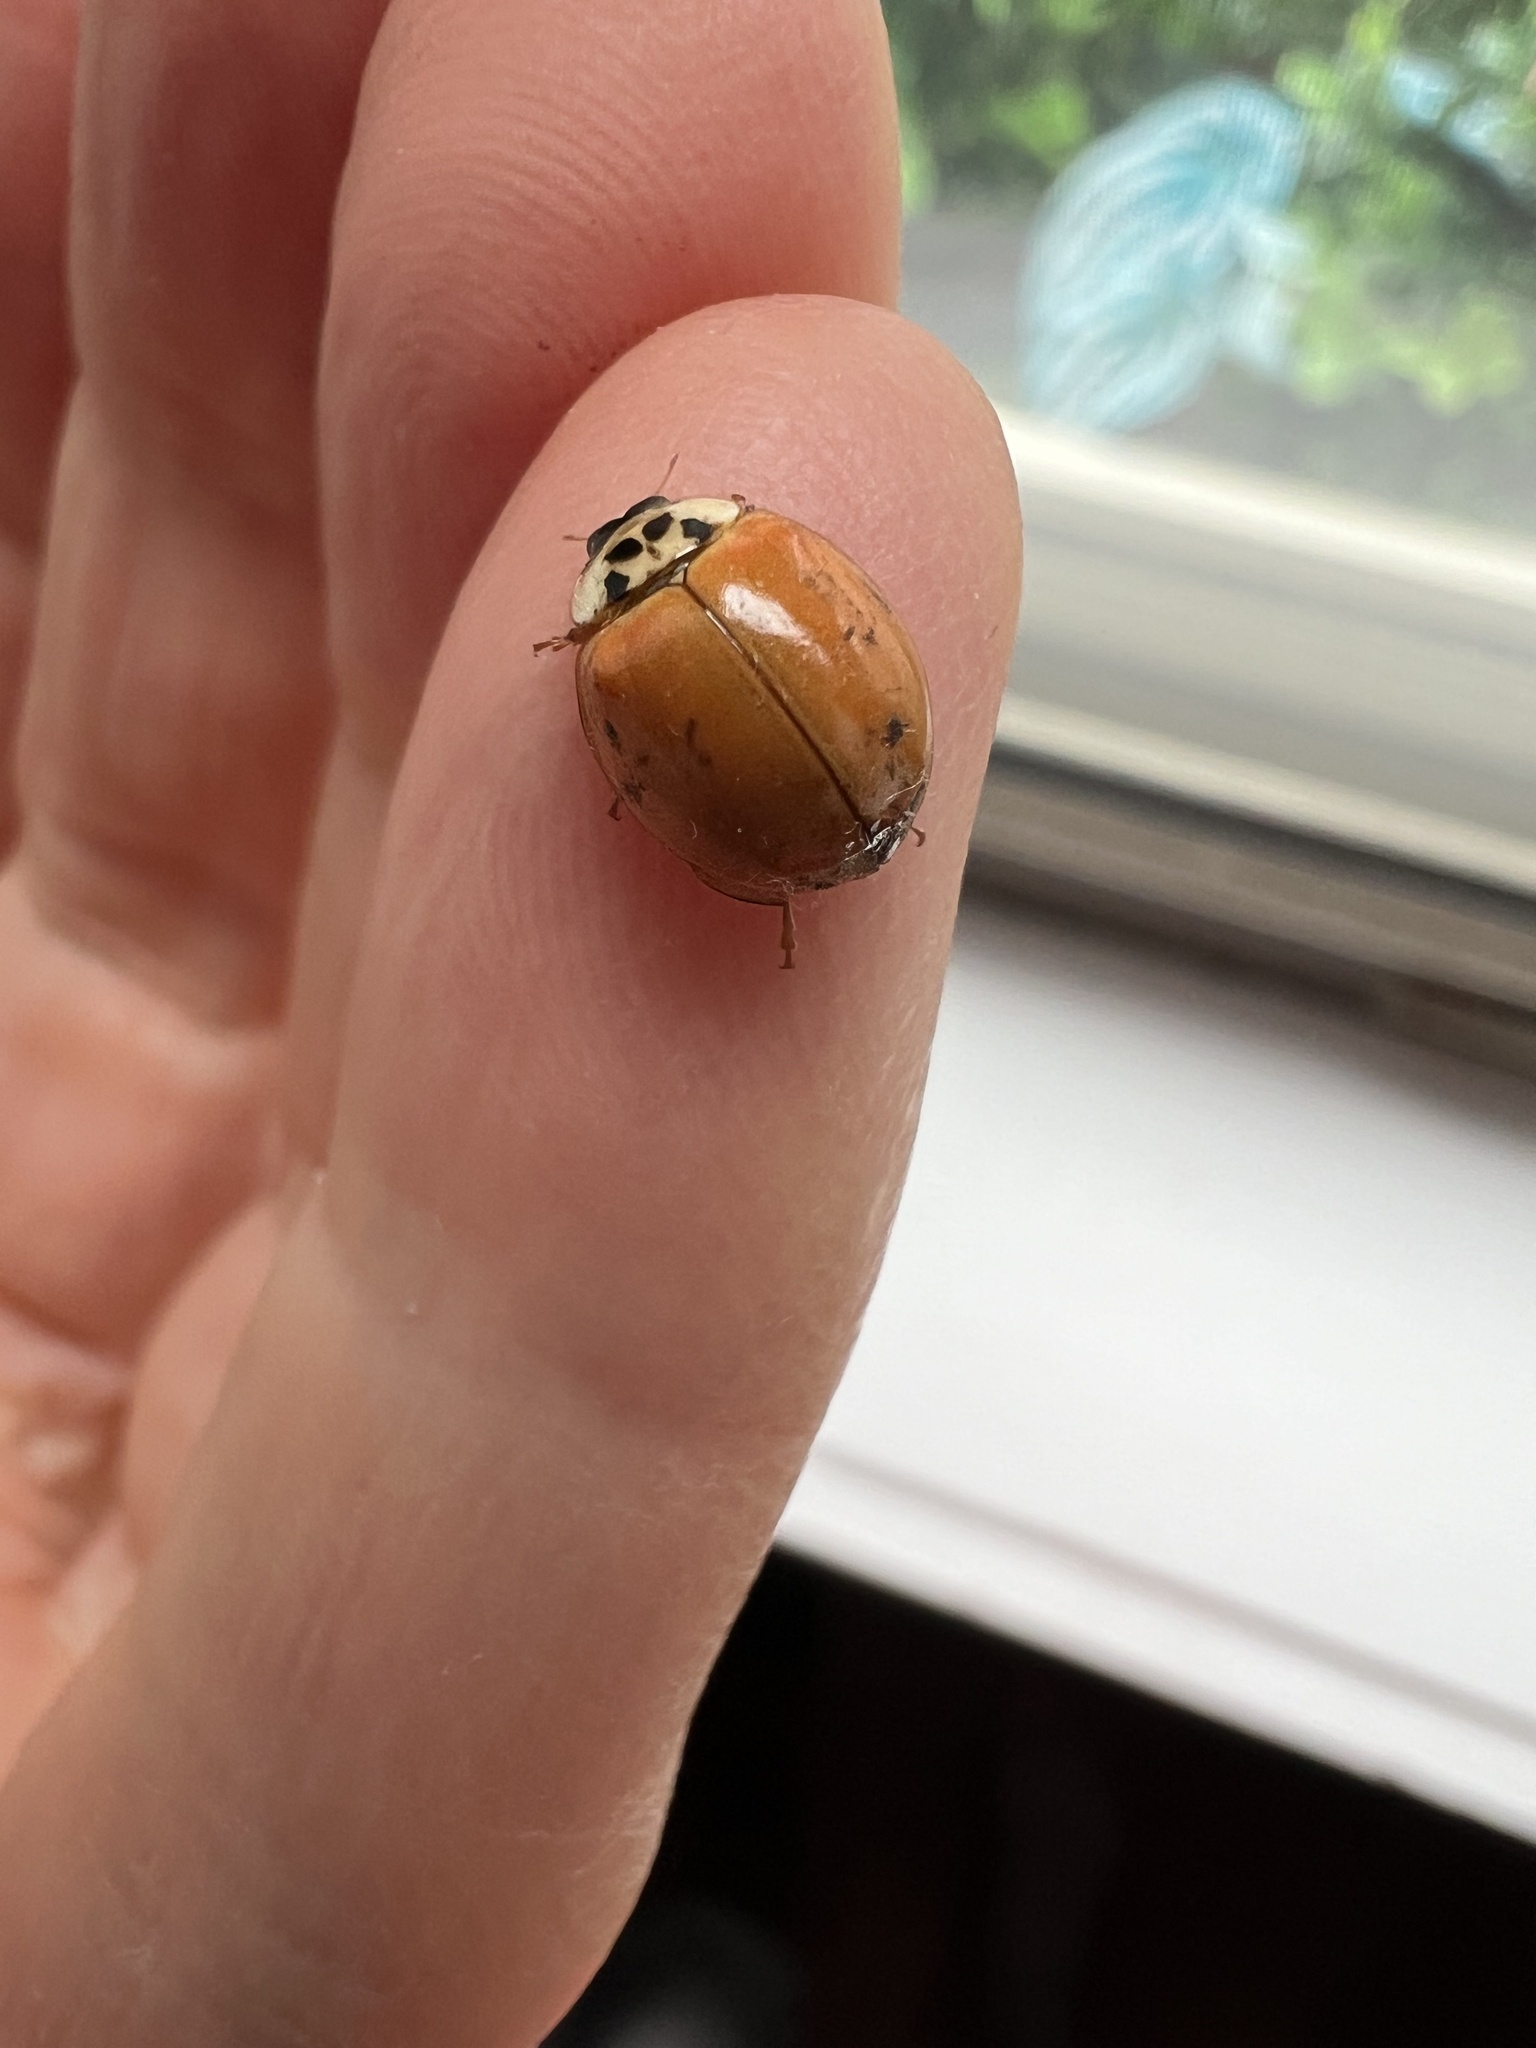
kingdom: Animalia
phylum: Arthropoda
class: Insecta
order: Coleoptera
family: Coccinellidae
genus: Harmonia
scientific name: Harmonia axyridis
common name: Harlequin ladybird
